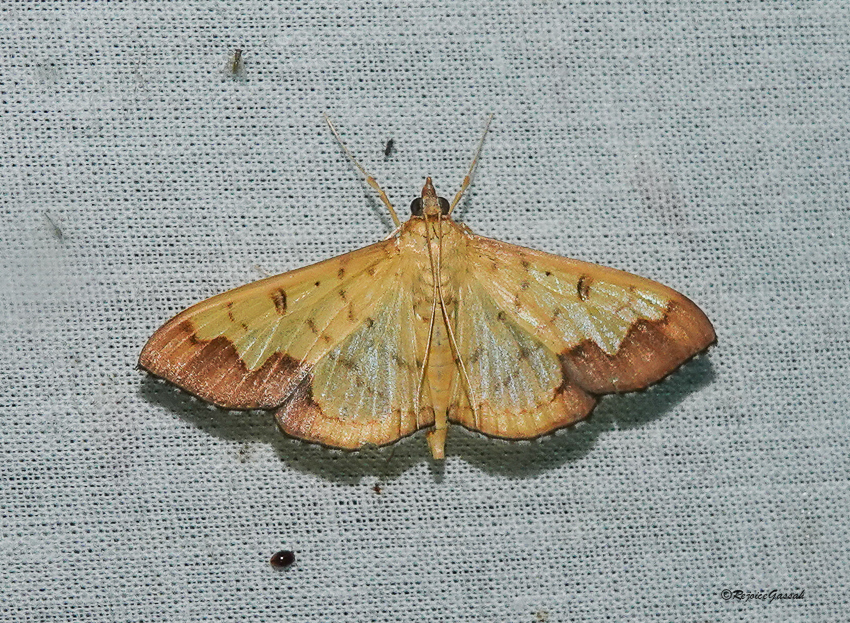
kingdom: Animalia
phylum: Arthropoda
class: Insecta
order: Lepidoptera
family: Crambidae
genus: Meroctena
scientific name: Meroctena tullalis
